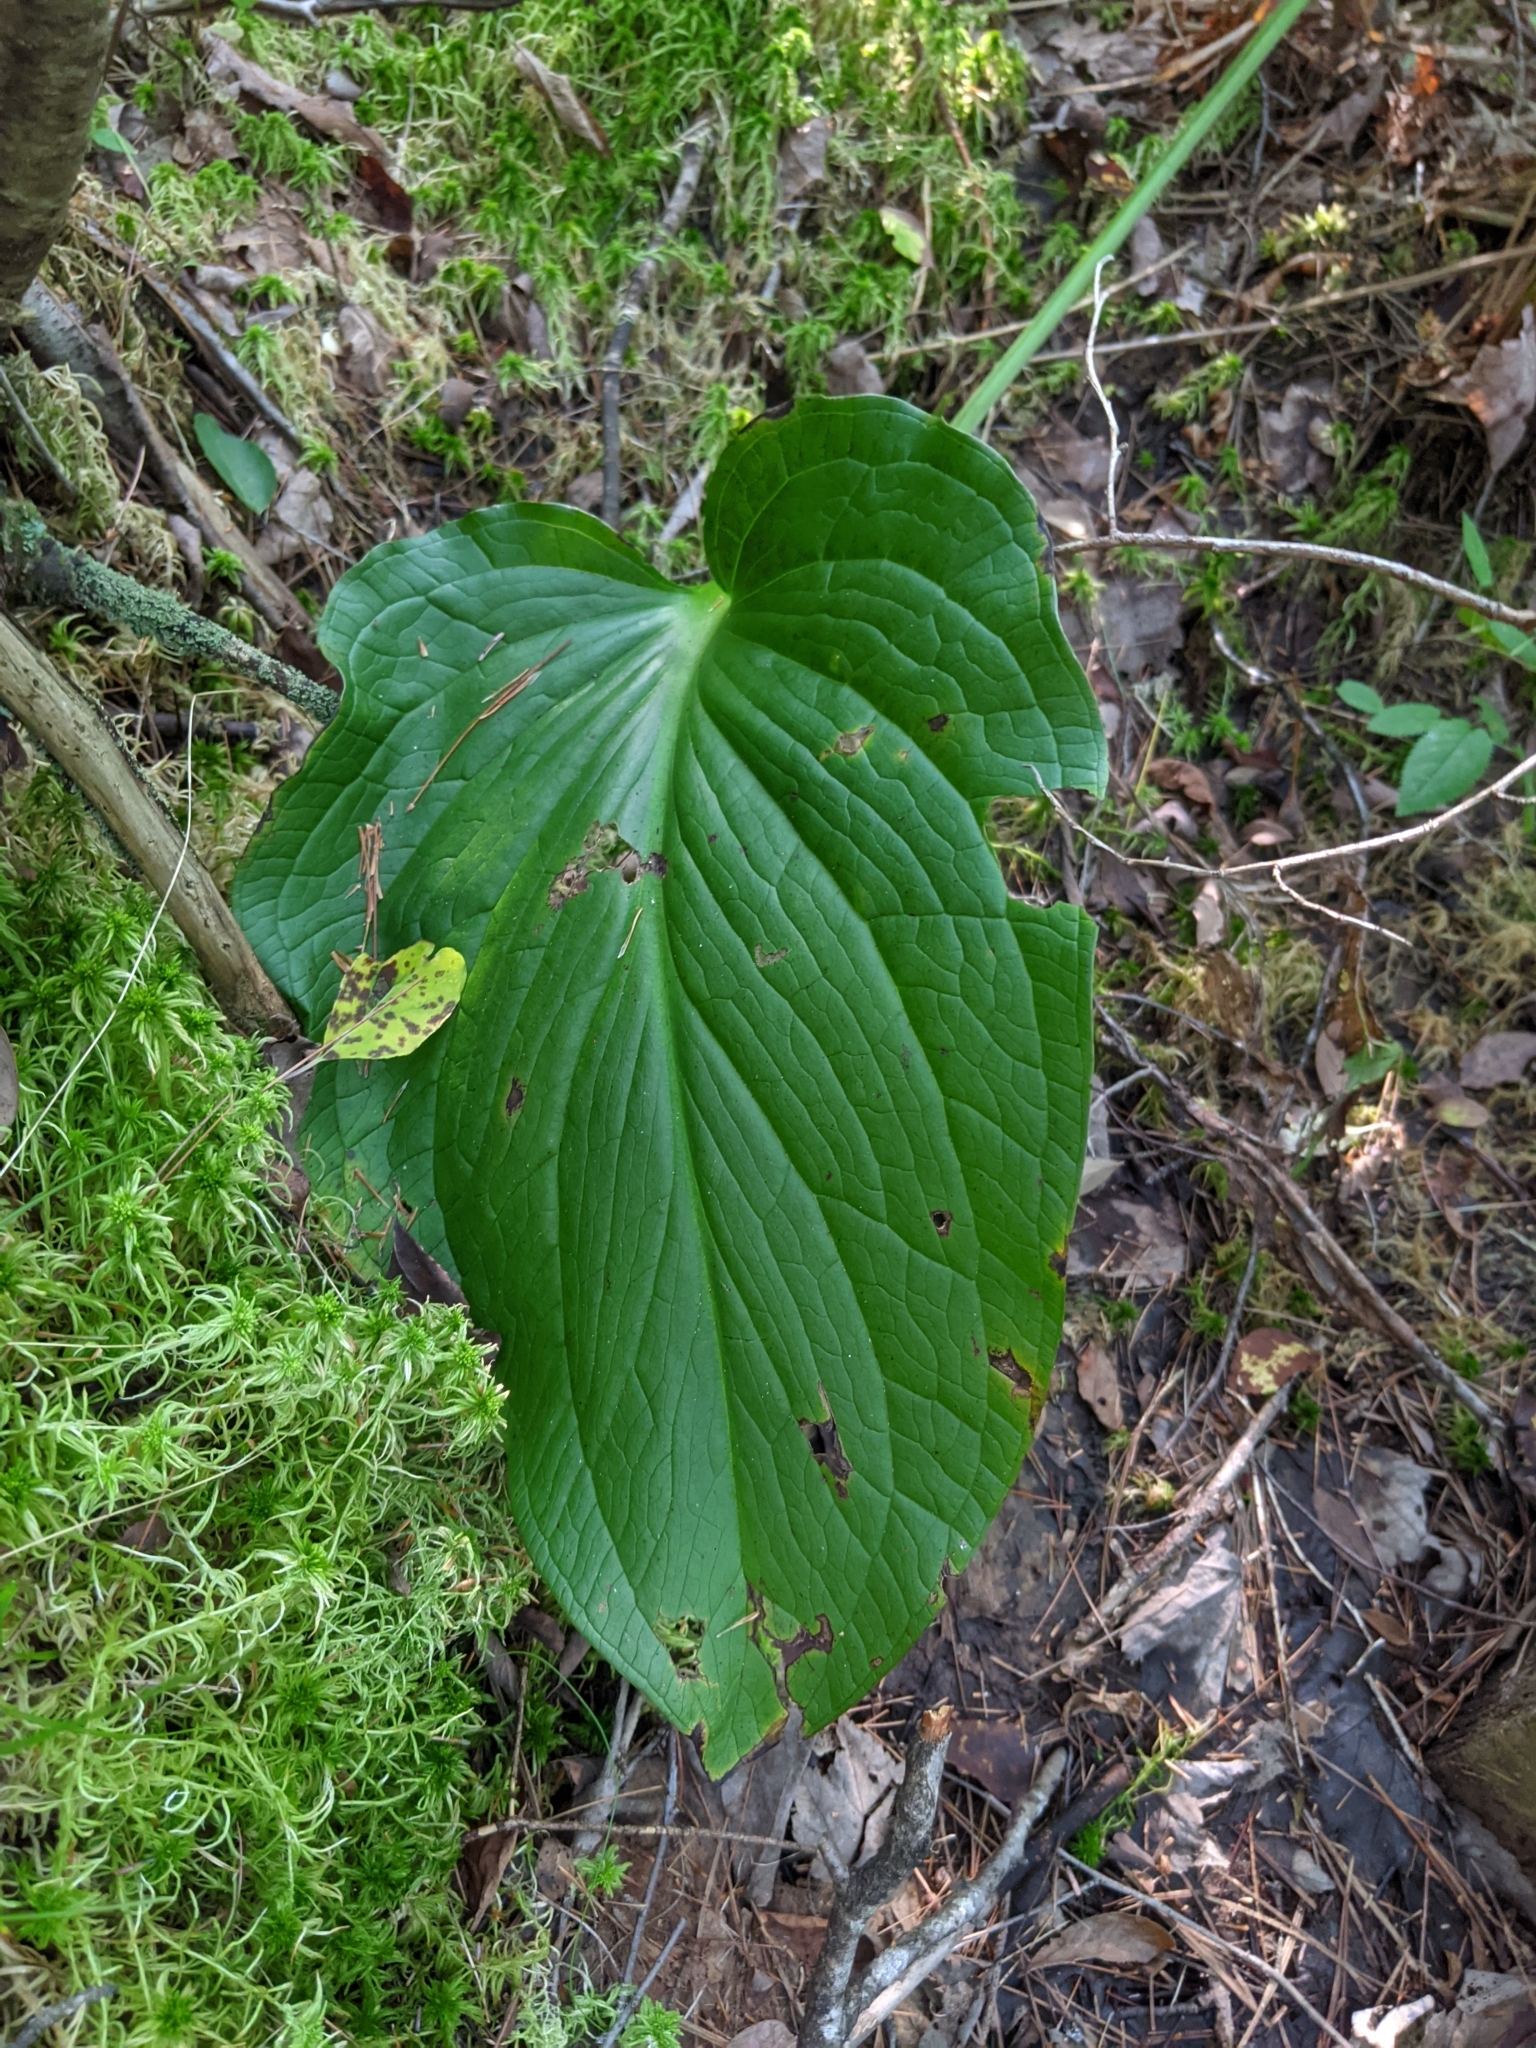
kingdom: Plantae
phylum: Tracheophyta
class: Liliopsida
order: Alismatales
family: Araceae
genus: Symplocarpus
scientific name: Symplocarpus foetidus
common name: Eastern skunk cabbage
